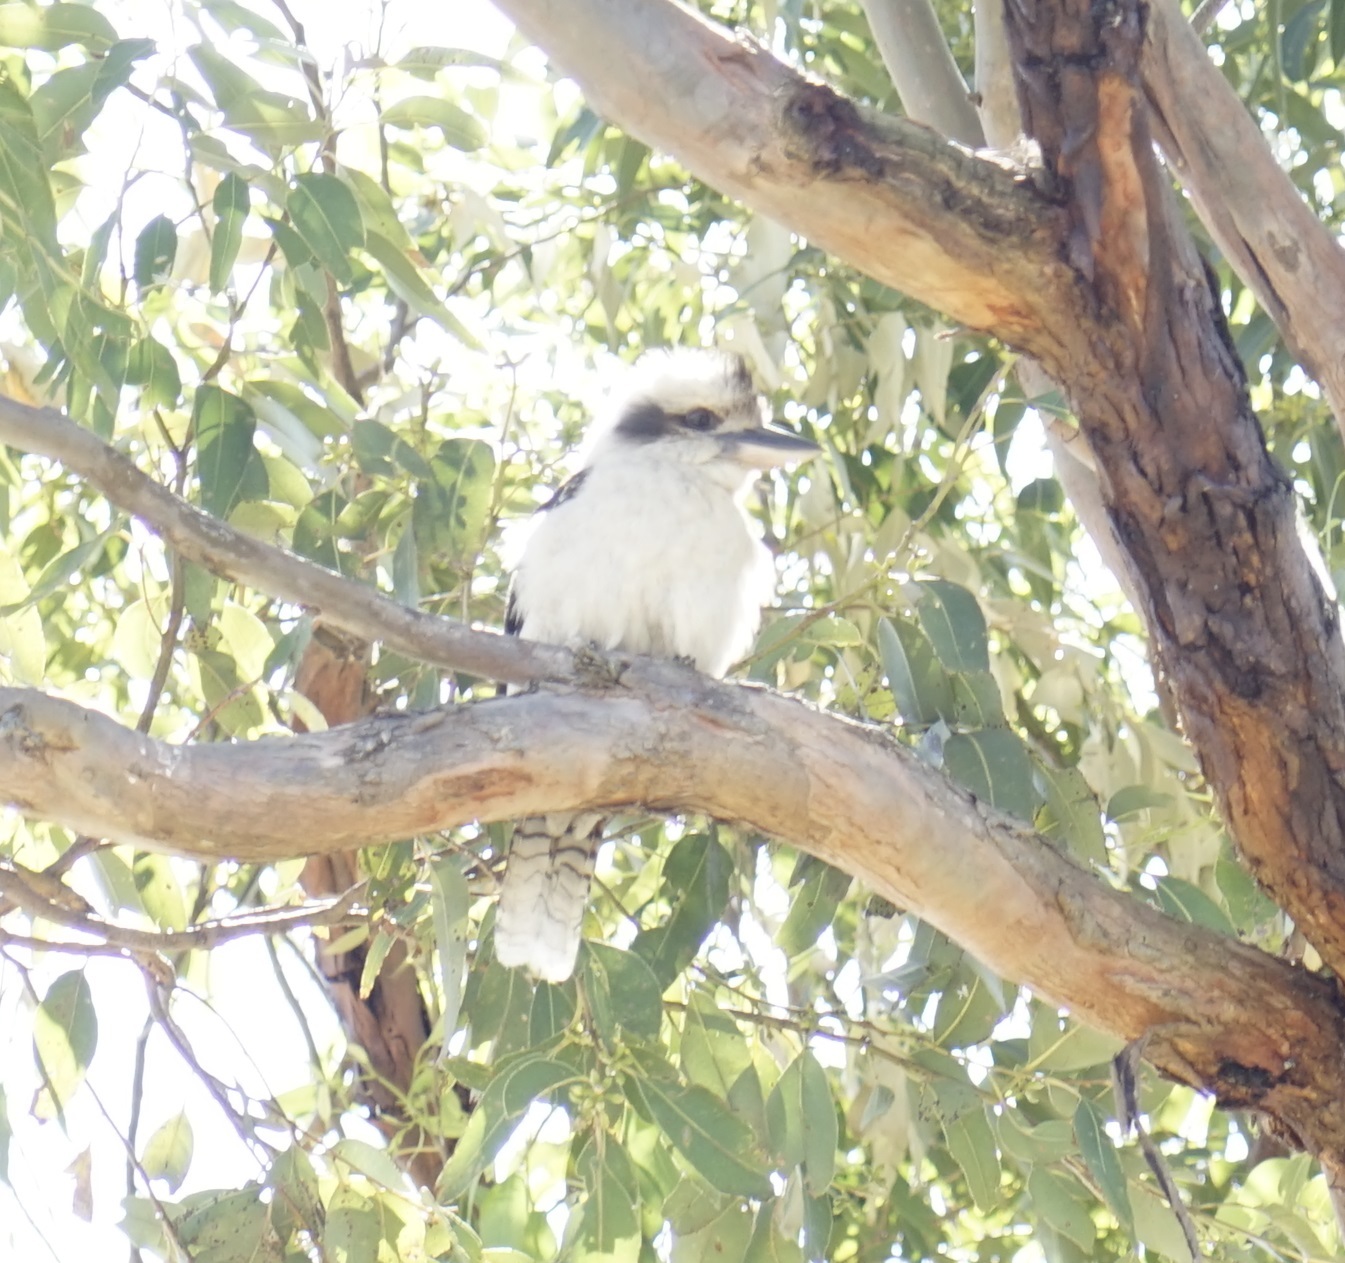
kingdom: Animalia
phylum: Chordata
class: Aves
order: Coraciiformes
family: Alcedinidae
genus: Dacelo
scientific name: Dacelo novaeguineae
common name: Laughing kookaburra
